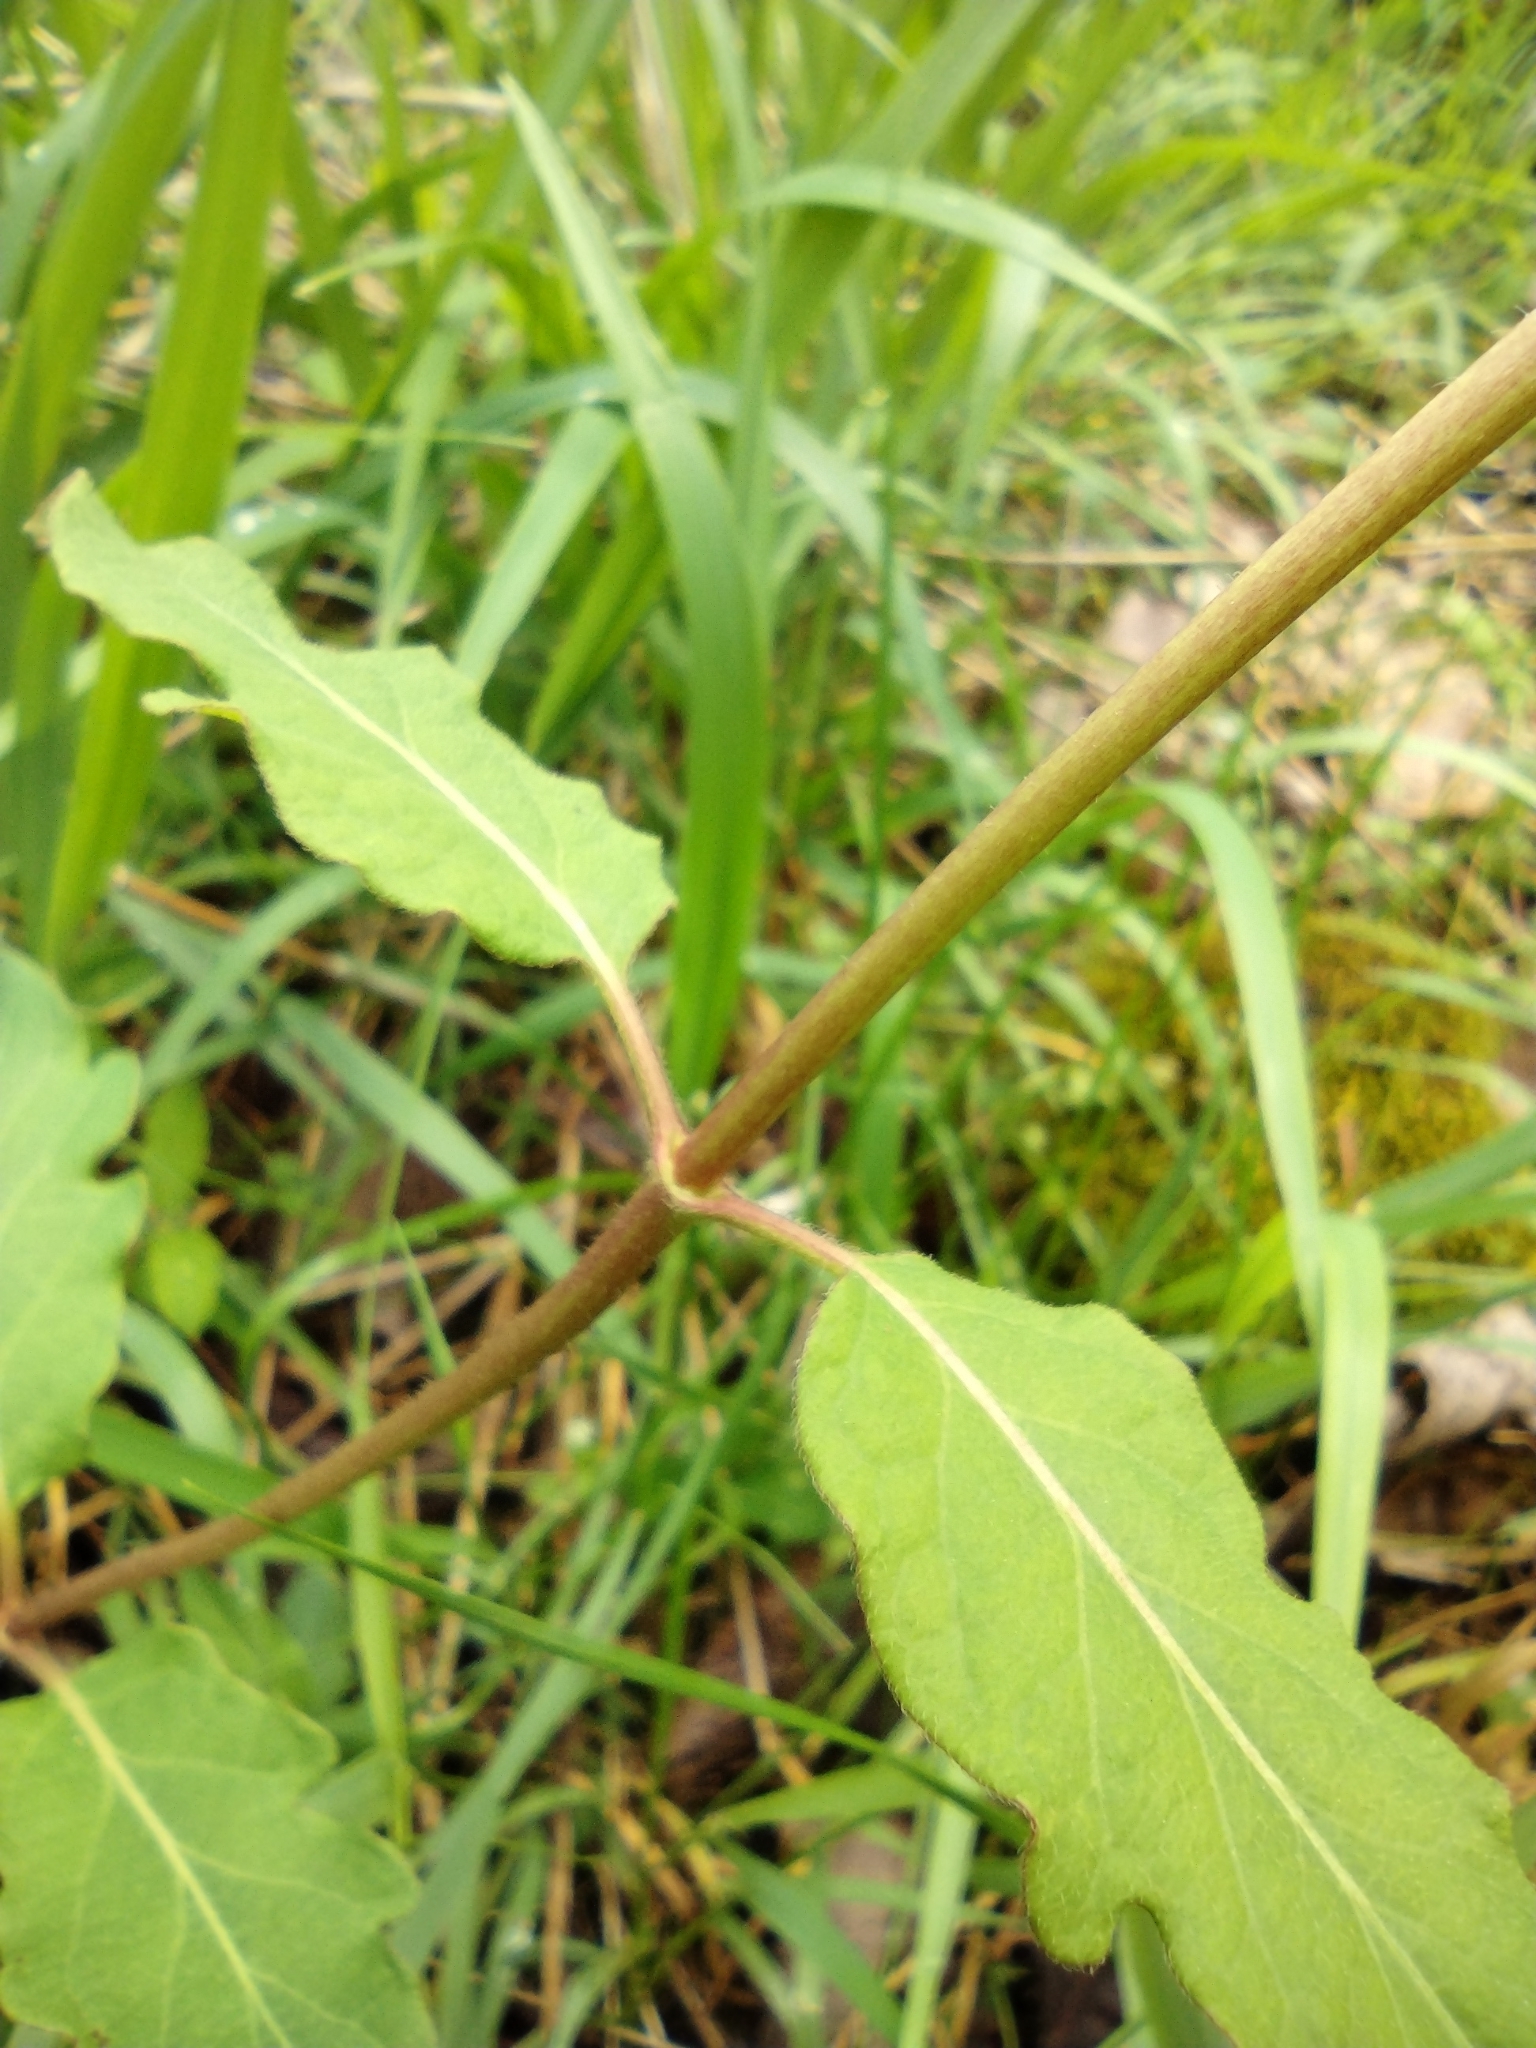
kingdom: Plantae
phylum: Tracheophyta
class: Magnoliopsida
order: Dipsacales
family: Caprifoliaceae
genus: Lonicera
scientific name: Lonicera japonica
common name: Japanese honeysuckle
